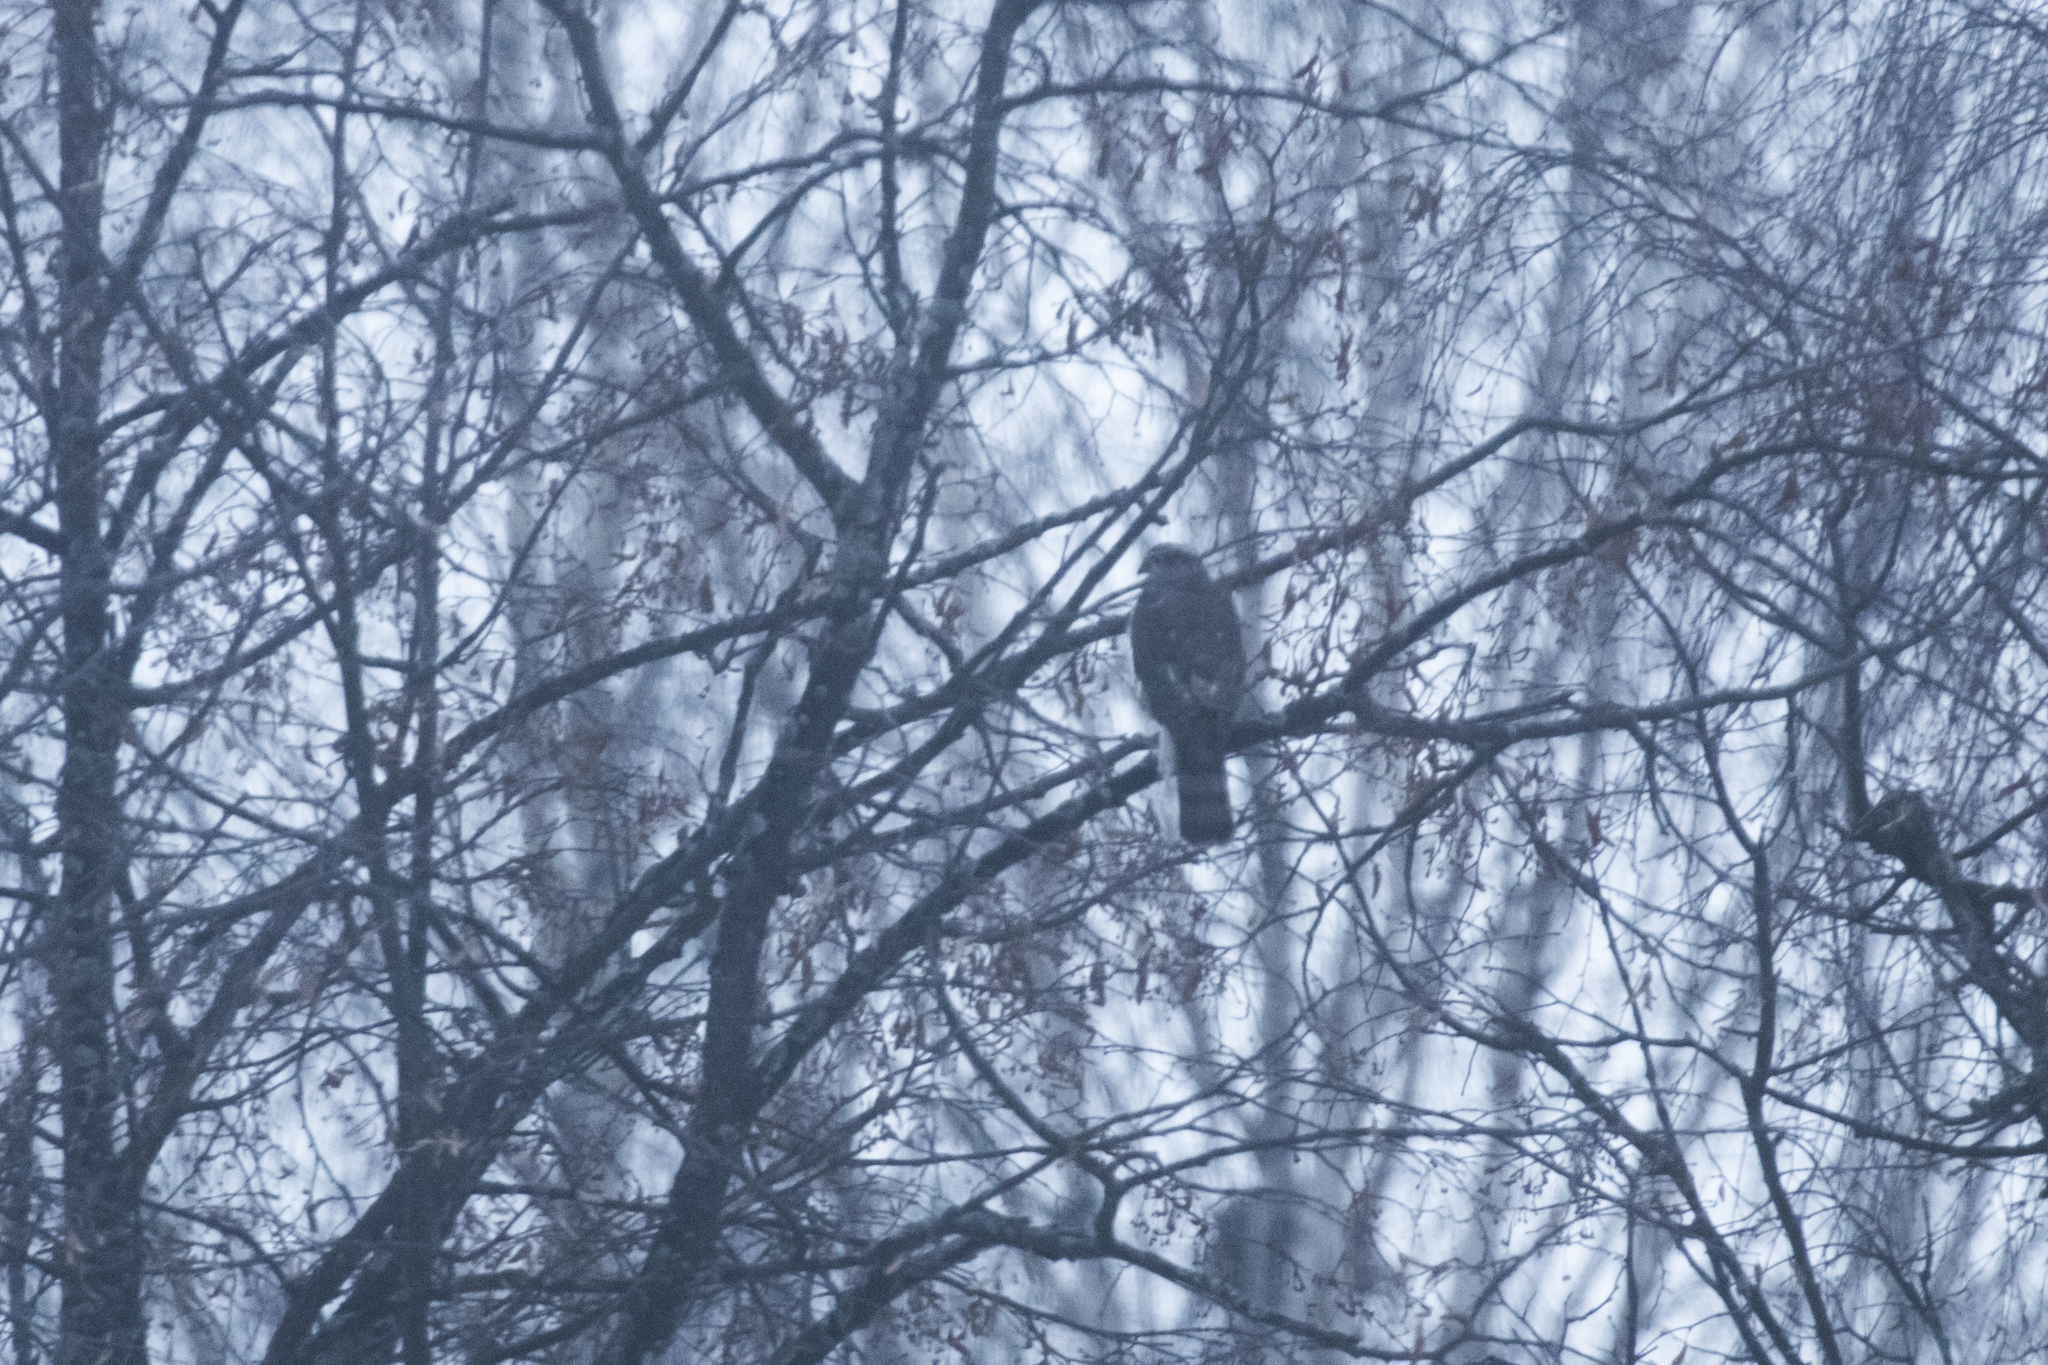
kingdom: Animalia
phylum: Chordata
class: Aves
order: Accipitriformes
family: Accipitridae
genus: Accipiter
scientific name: Accipiter nisus
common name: Eurasian sparrowhawk
